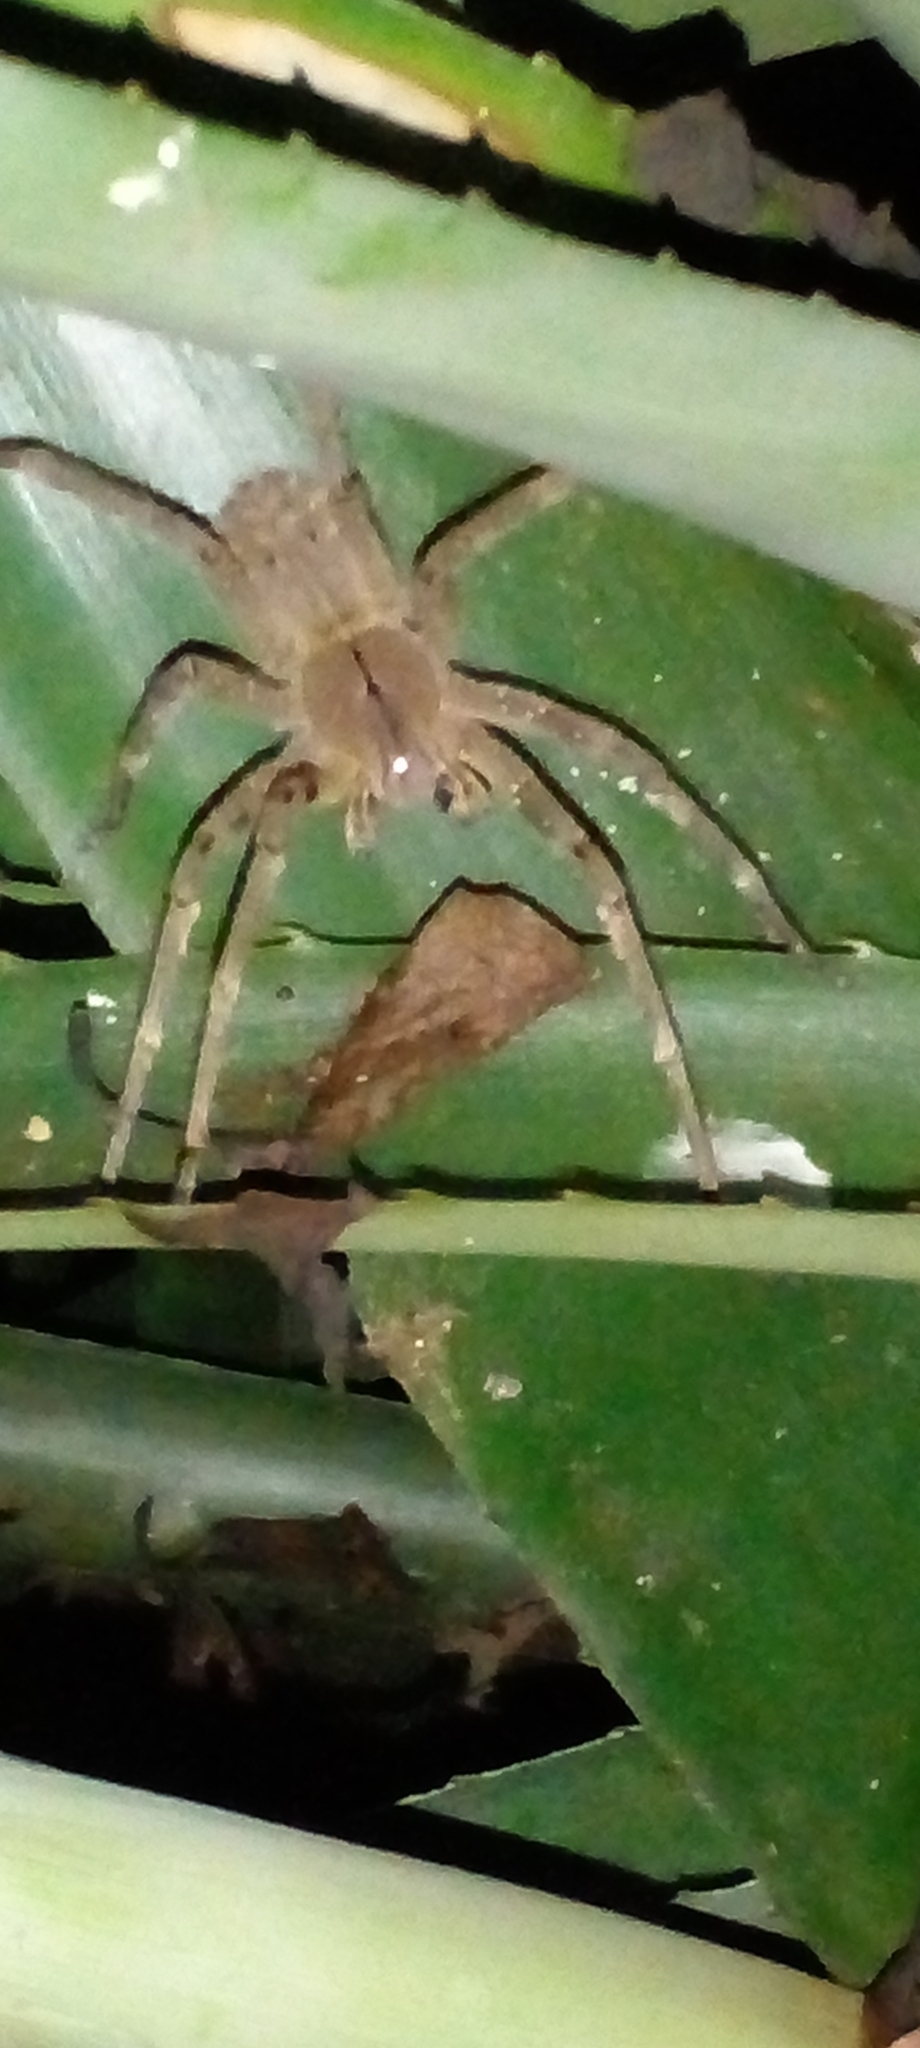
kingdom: Animalia
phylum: Arthropoda
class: Arachnida
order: Araneae
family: Ctenidae
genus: Phoneutria
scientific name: Phoneutria nigriventer
